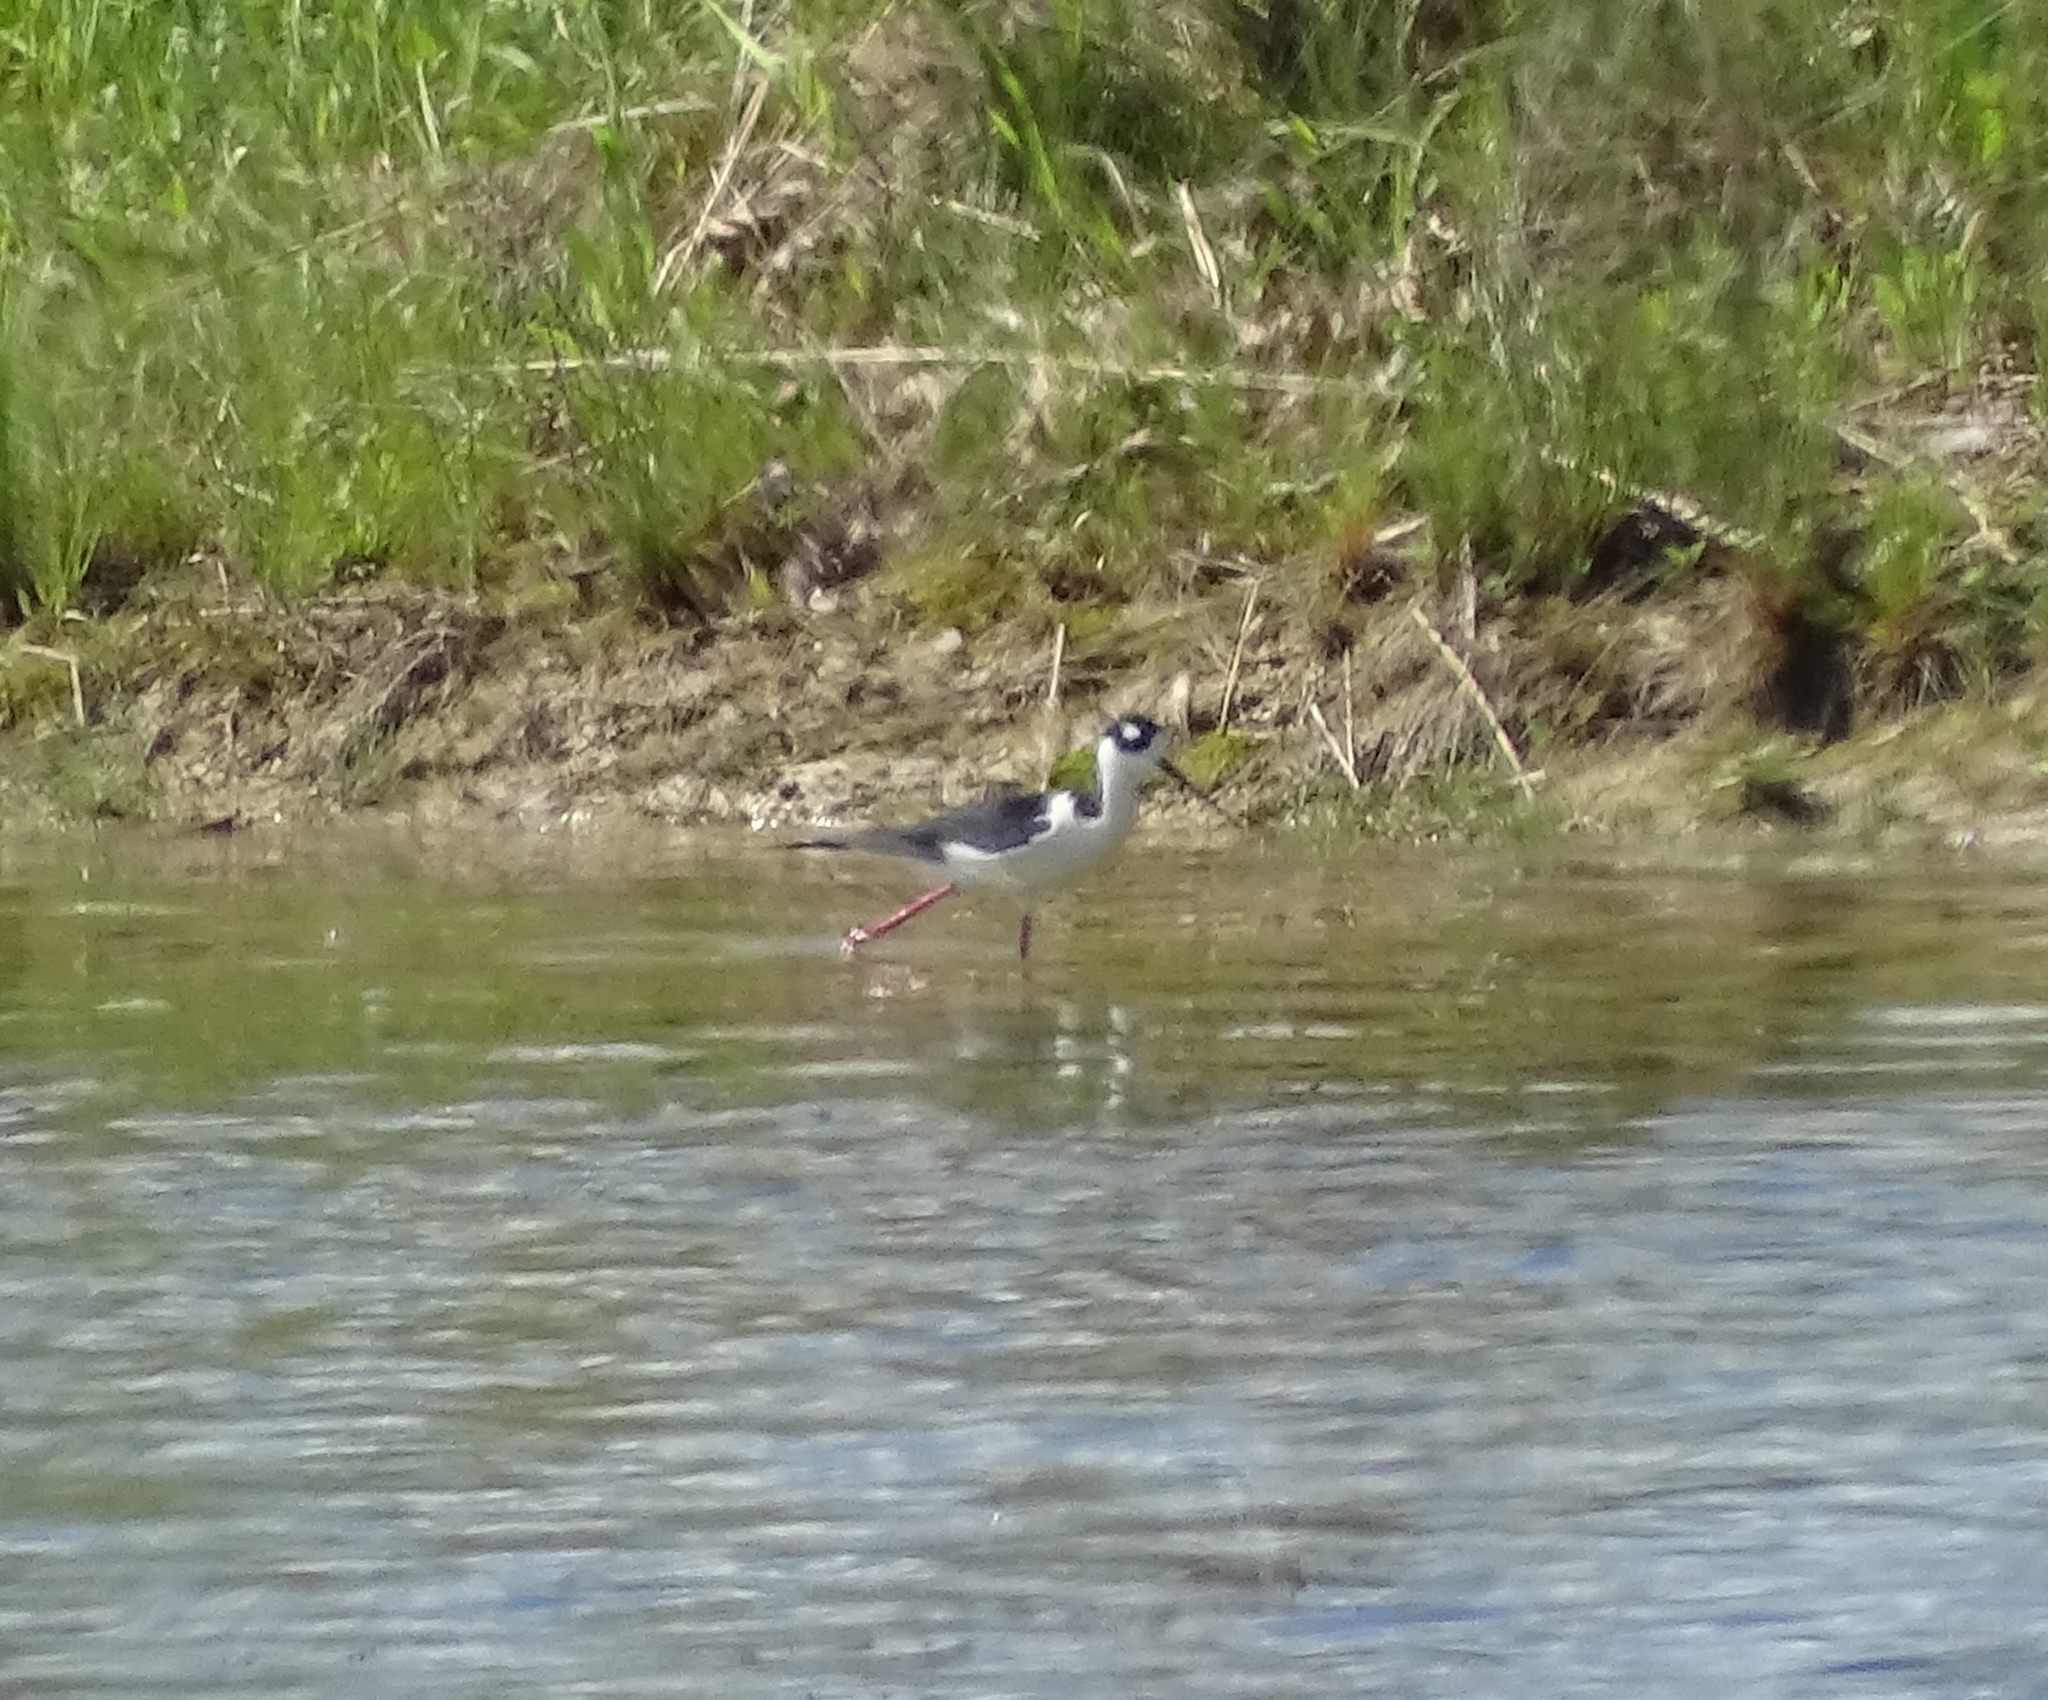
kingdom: Animalia
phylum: Chordata
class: Aves
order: Charadriiformes
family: Recurvirostridae
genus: Himantopus
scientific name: Himantopus mexicanus
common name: Black-necked stilt
